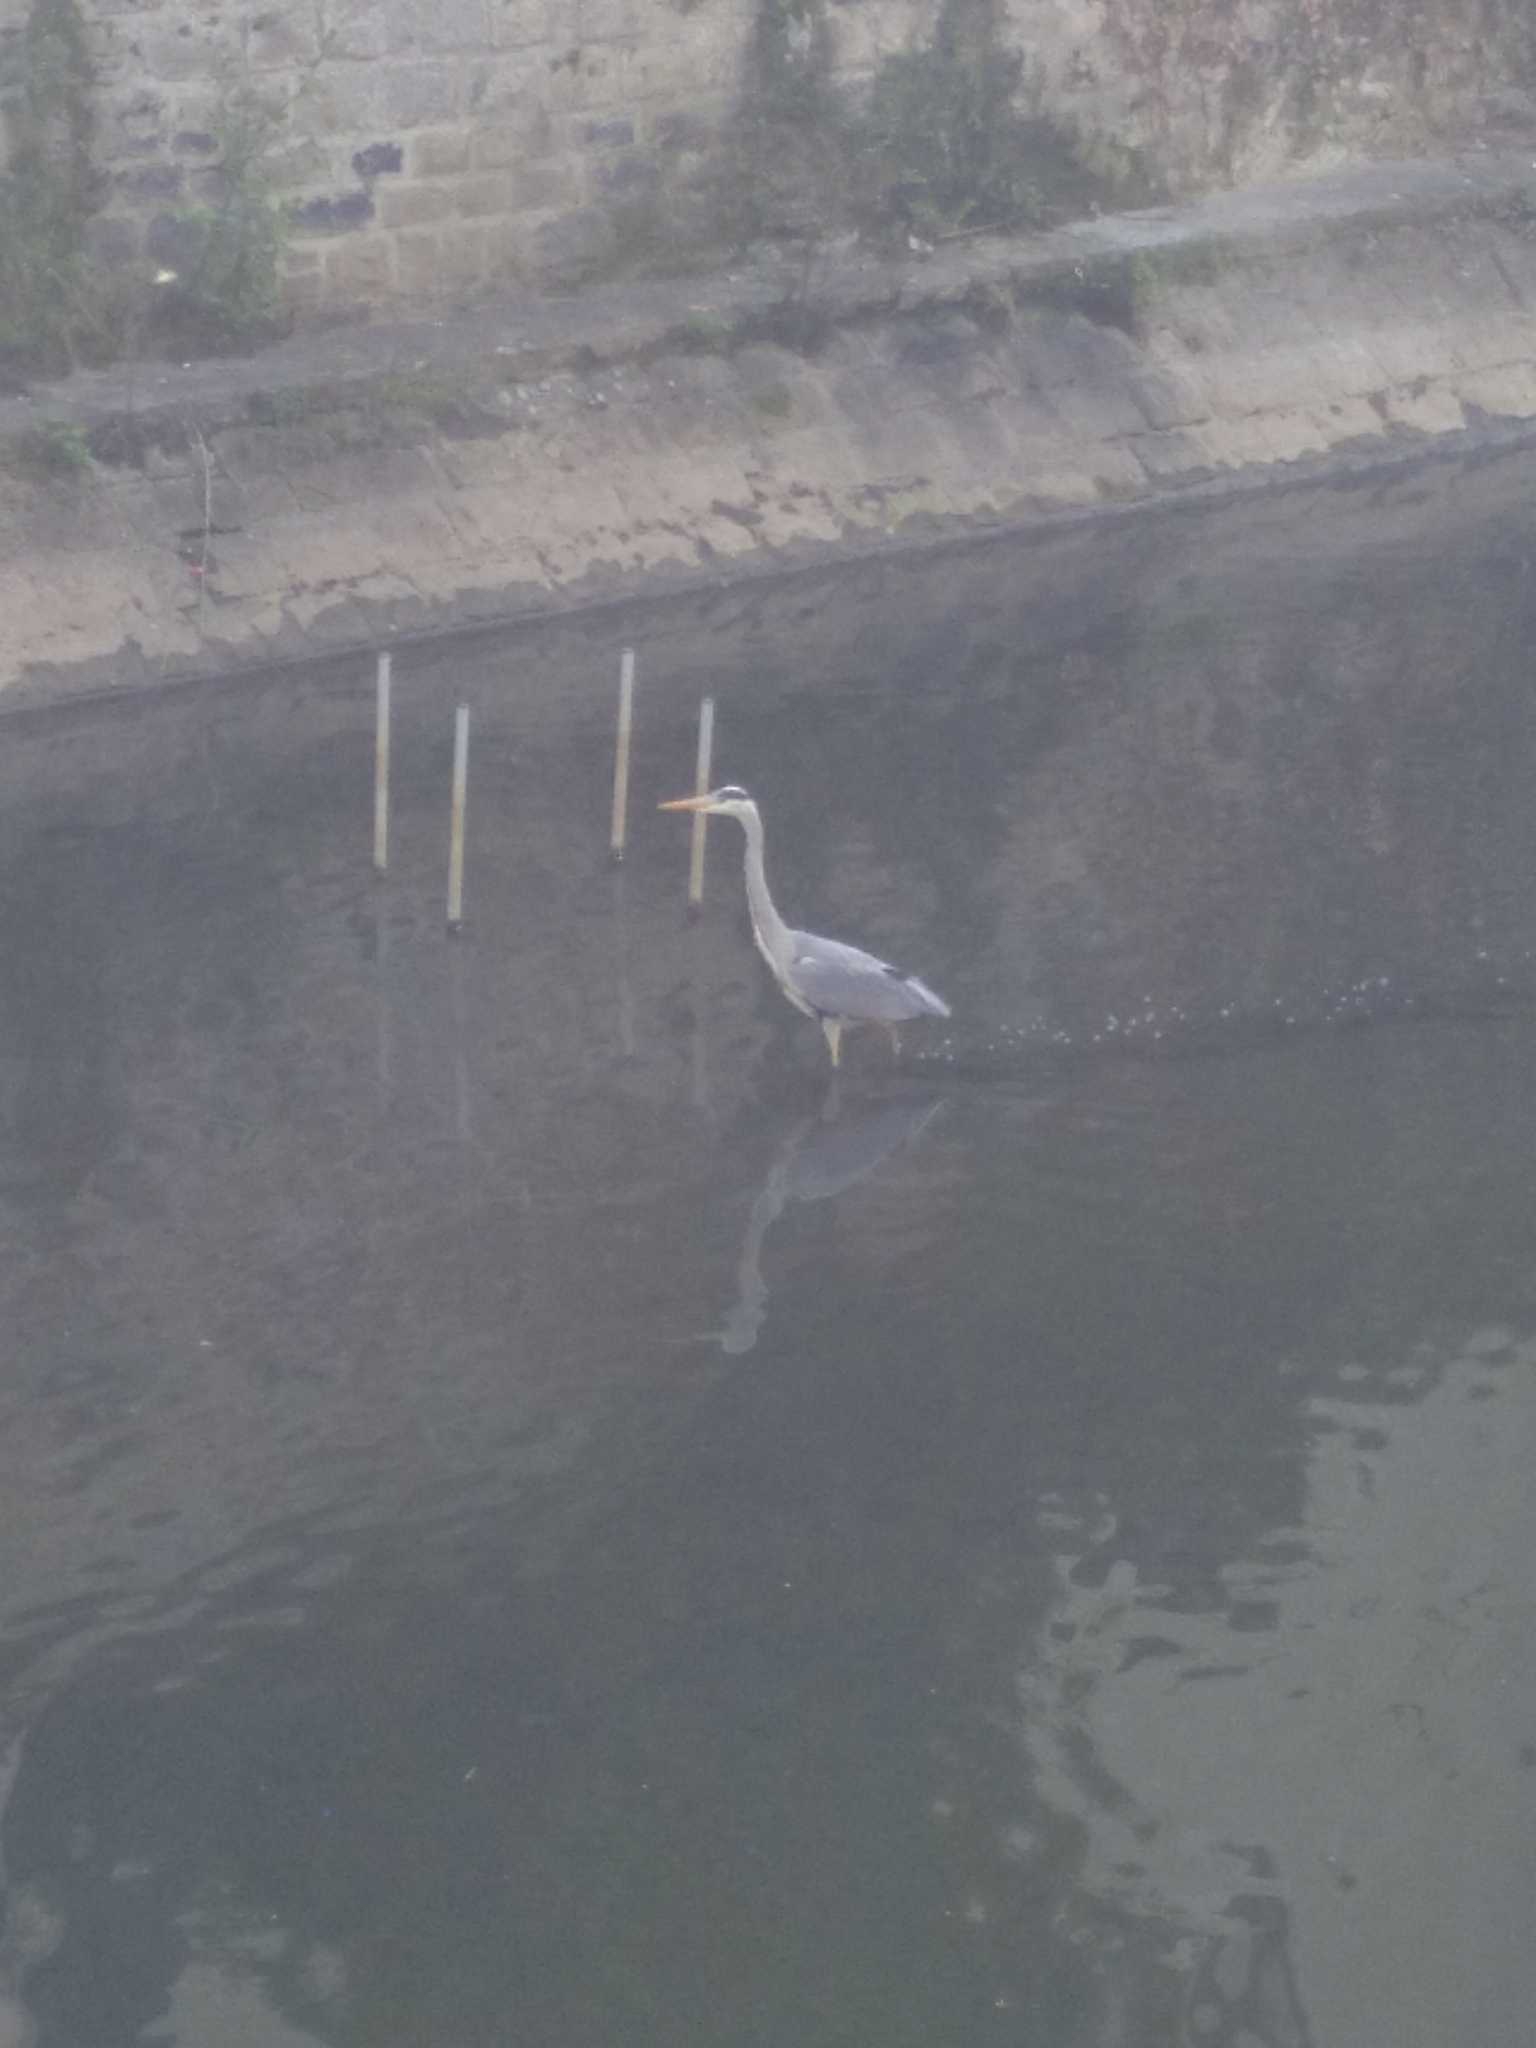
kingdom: Animalia
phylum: Chordata
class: Aves
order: Pelecaniformes
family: Ardeidae
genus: Ardea
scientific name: Ardea cinerea
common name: Grey heron
